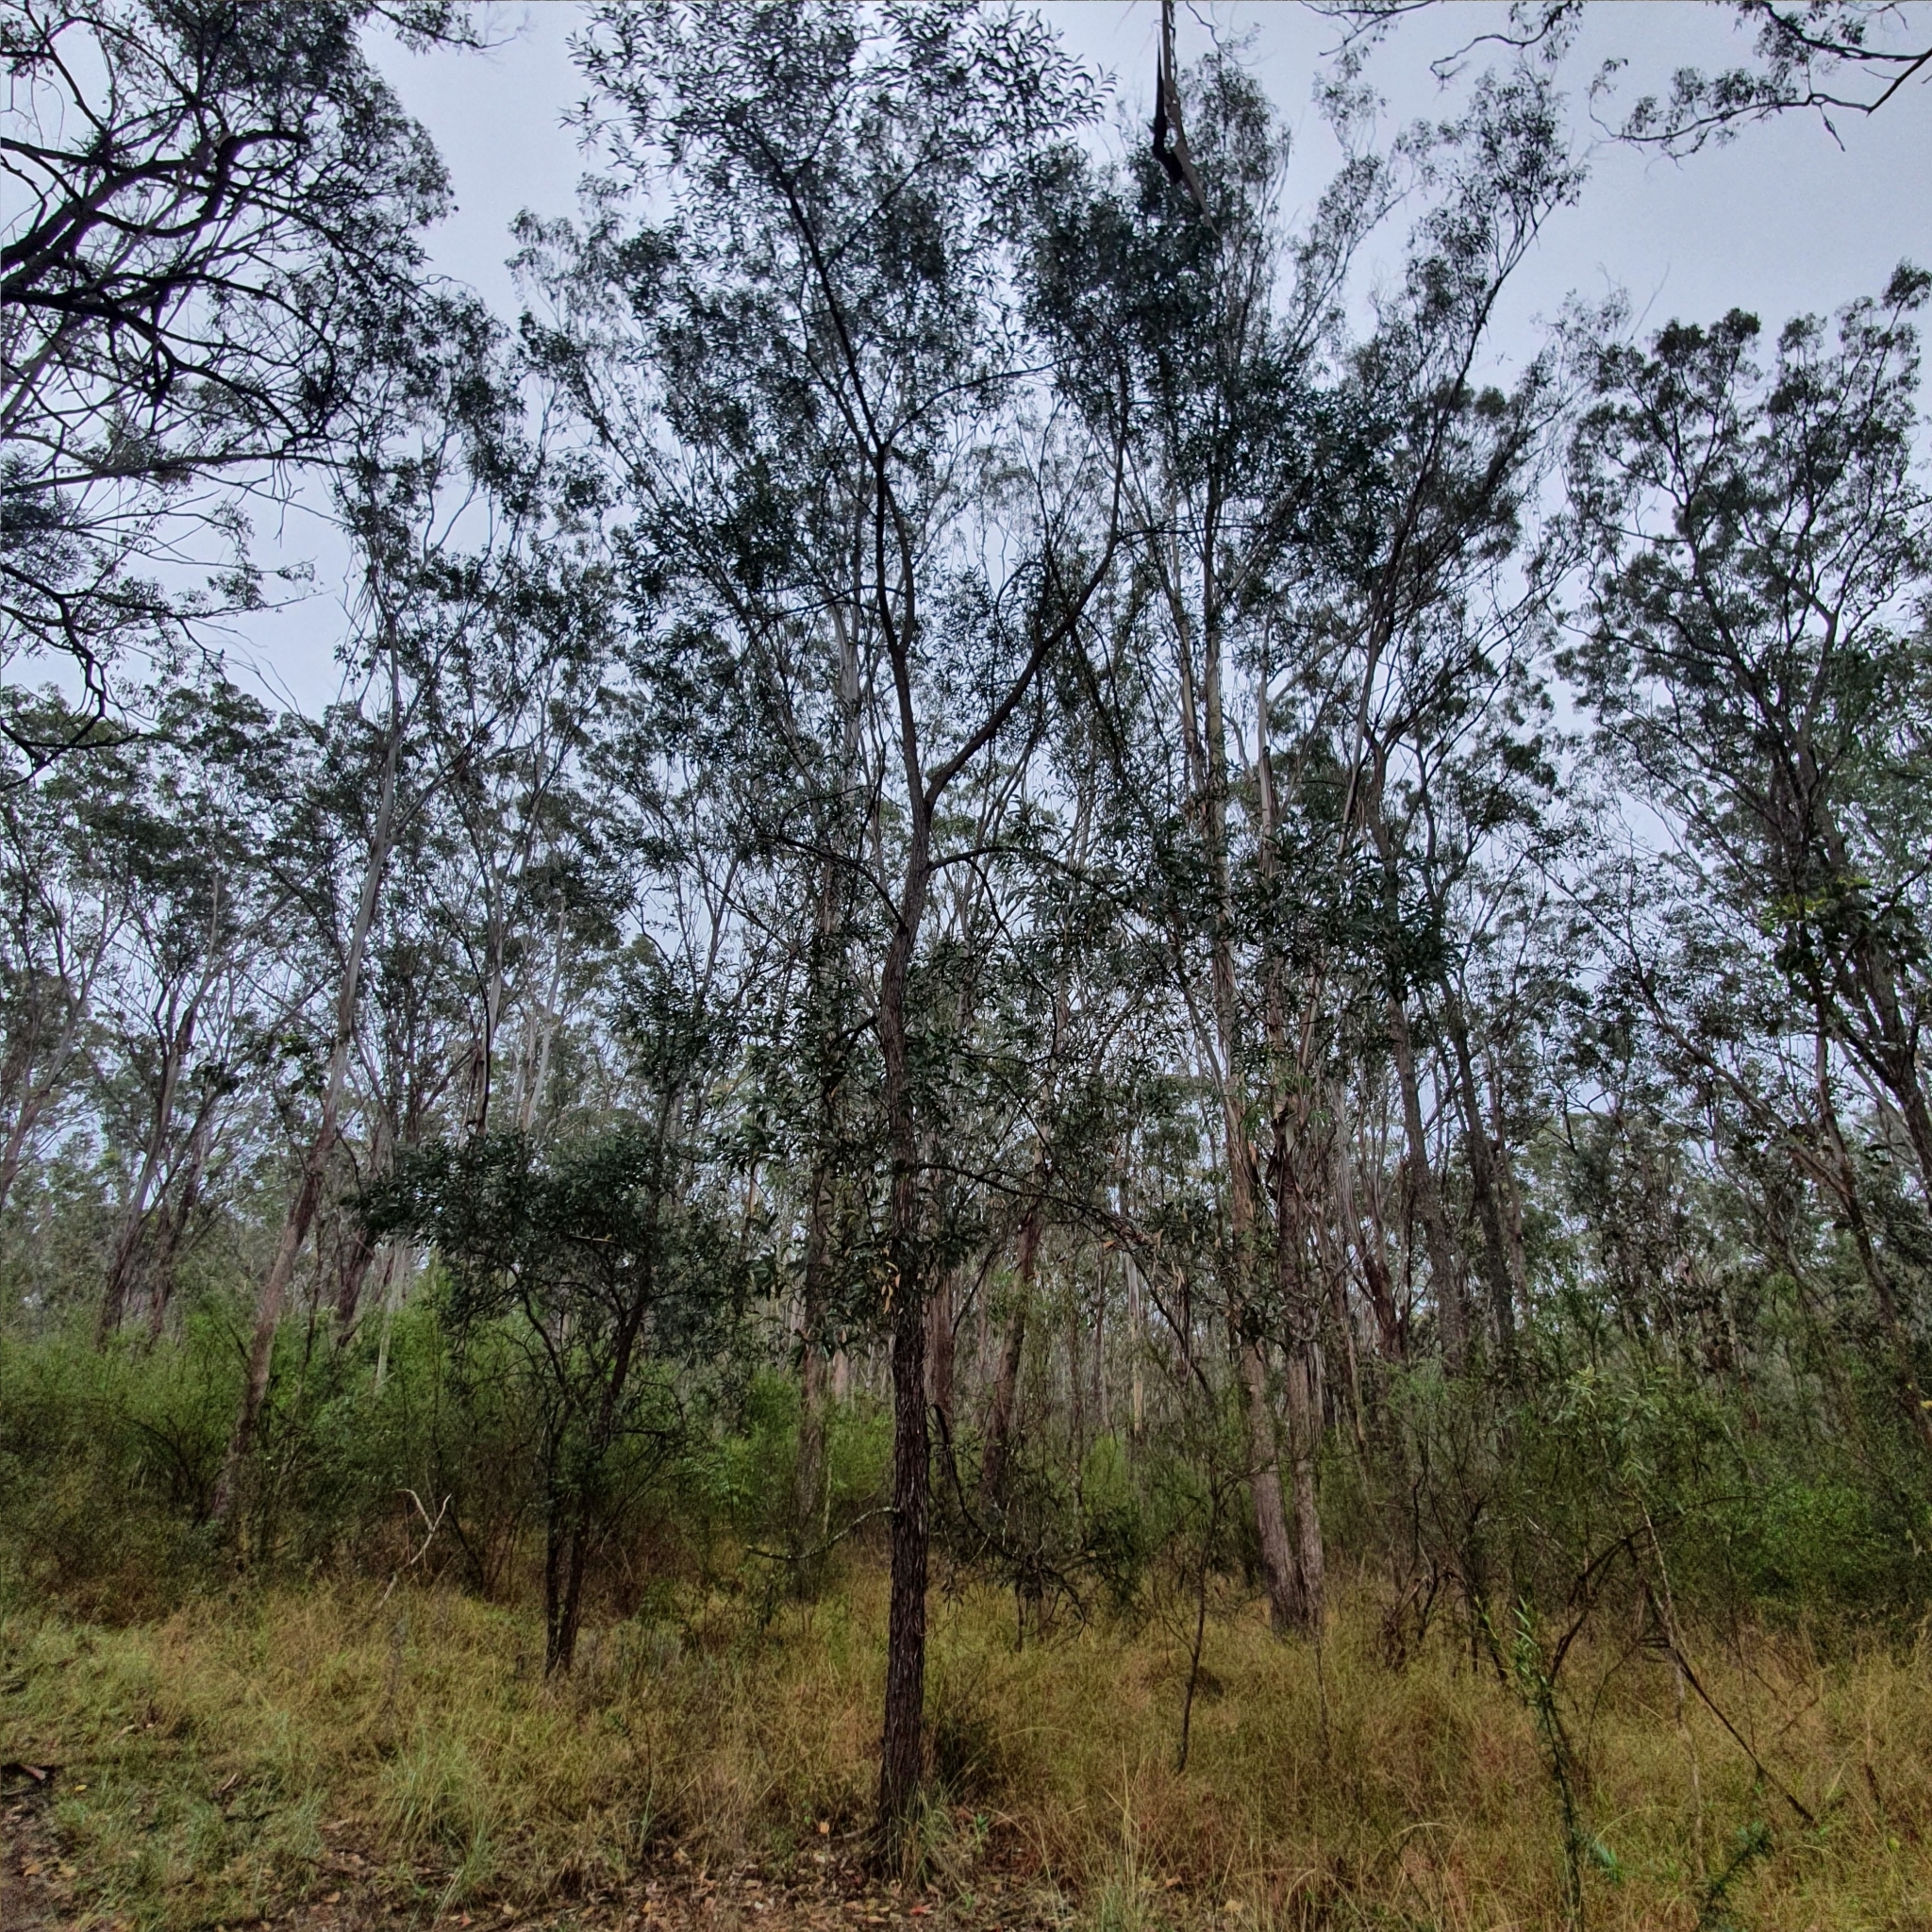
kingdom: Plantae
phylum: Tracheophyta
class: Magnoliopsida
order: Fabales
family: Fabaceae
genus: Acacia
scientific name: Acacia binervia
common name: Coast myall
